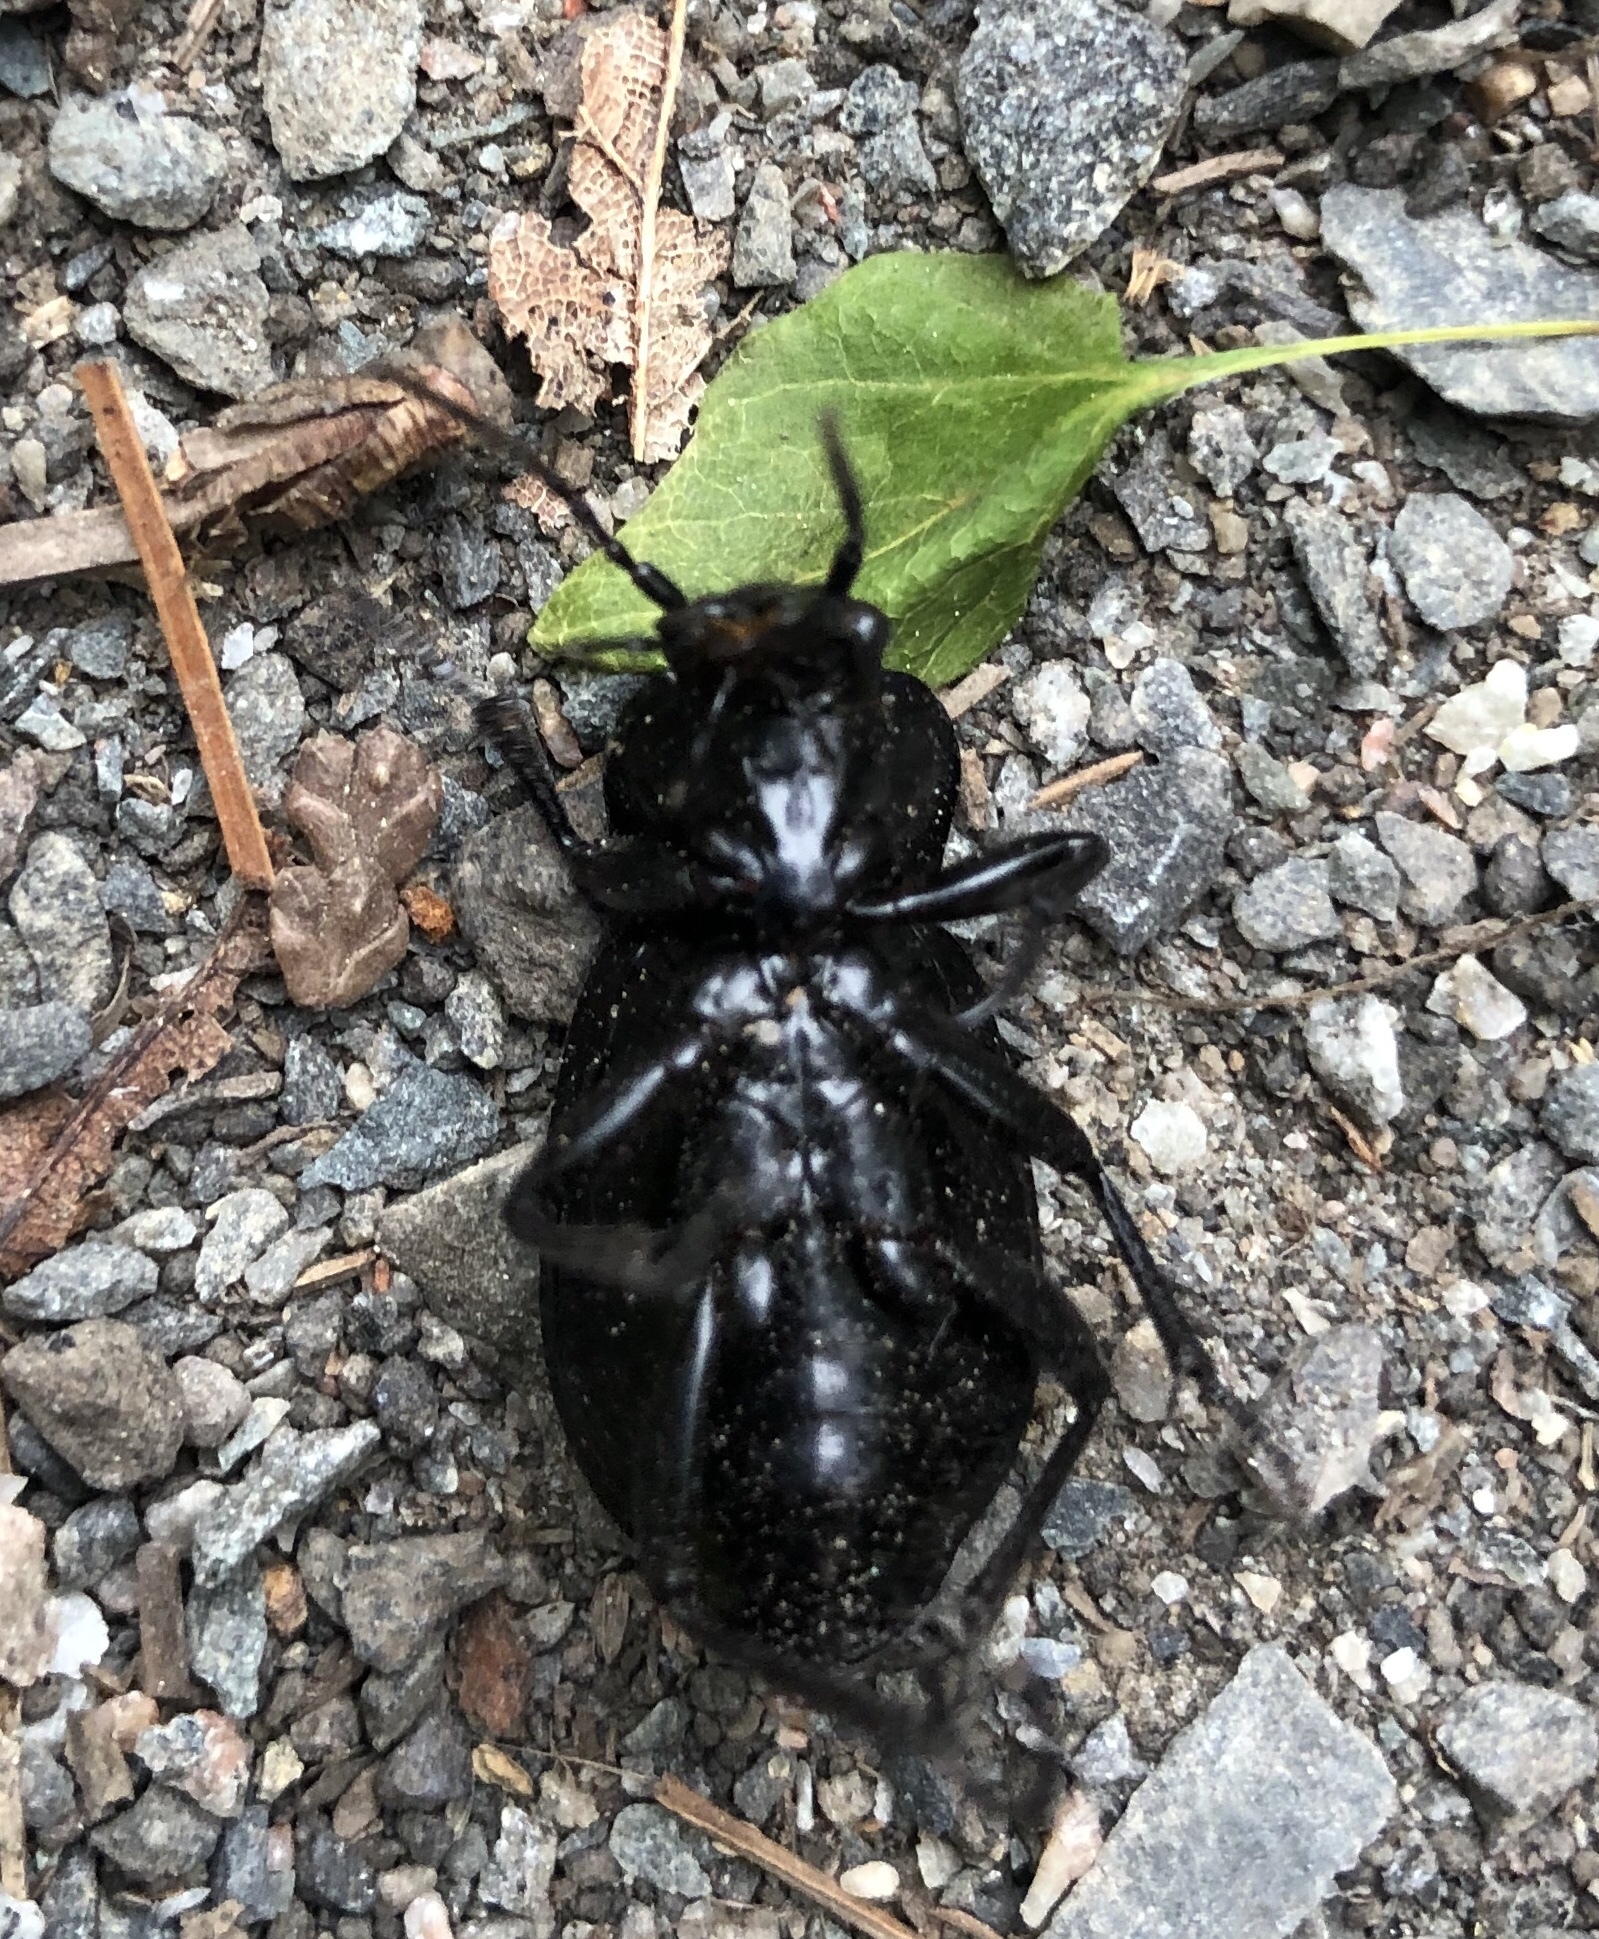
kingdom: Animalia
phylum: Arthropoda
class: Insecta
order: Coleoptera
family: Carabidae
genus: Carabus
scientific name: Carabus nemoralis
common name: European ground beetle
